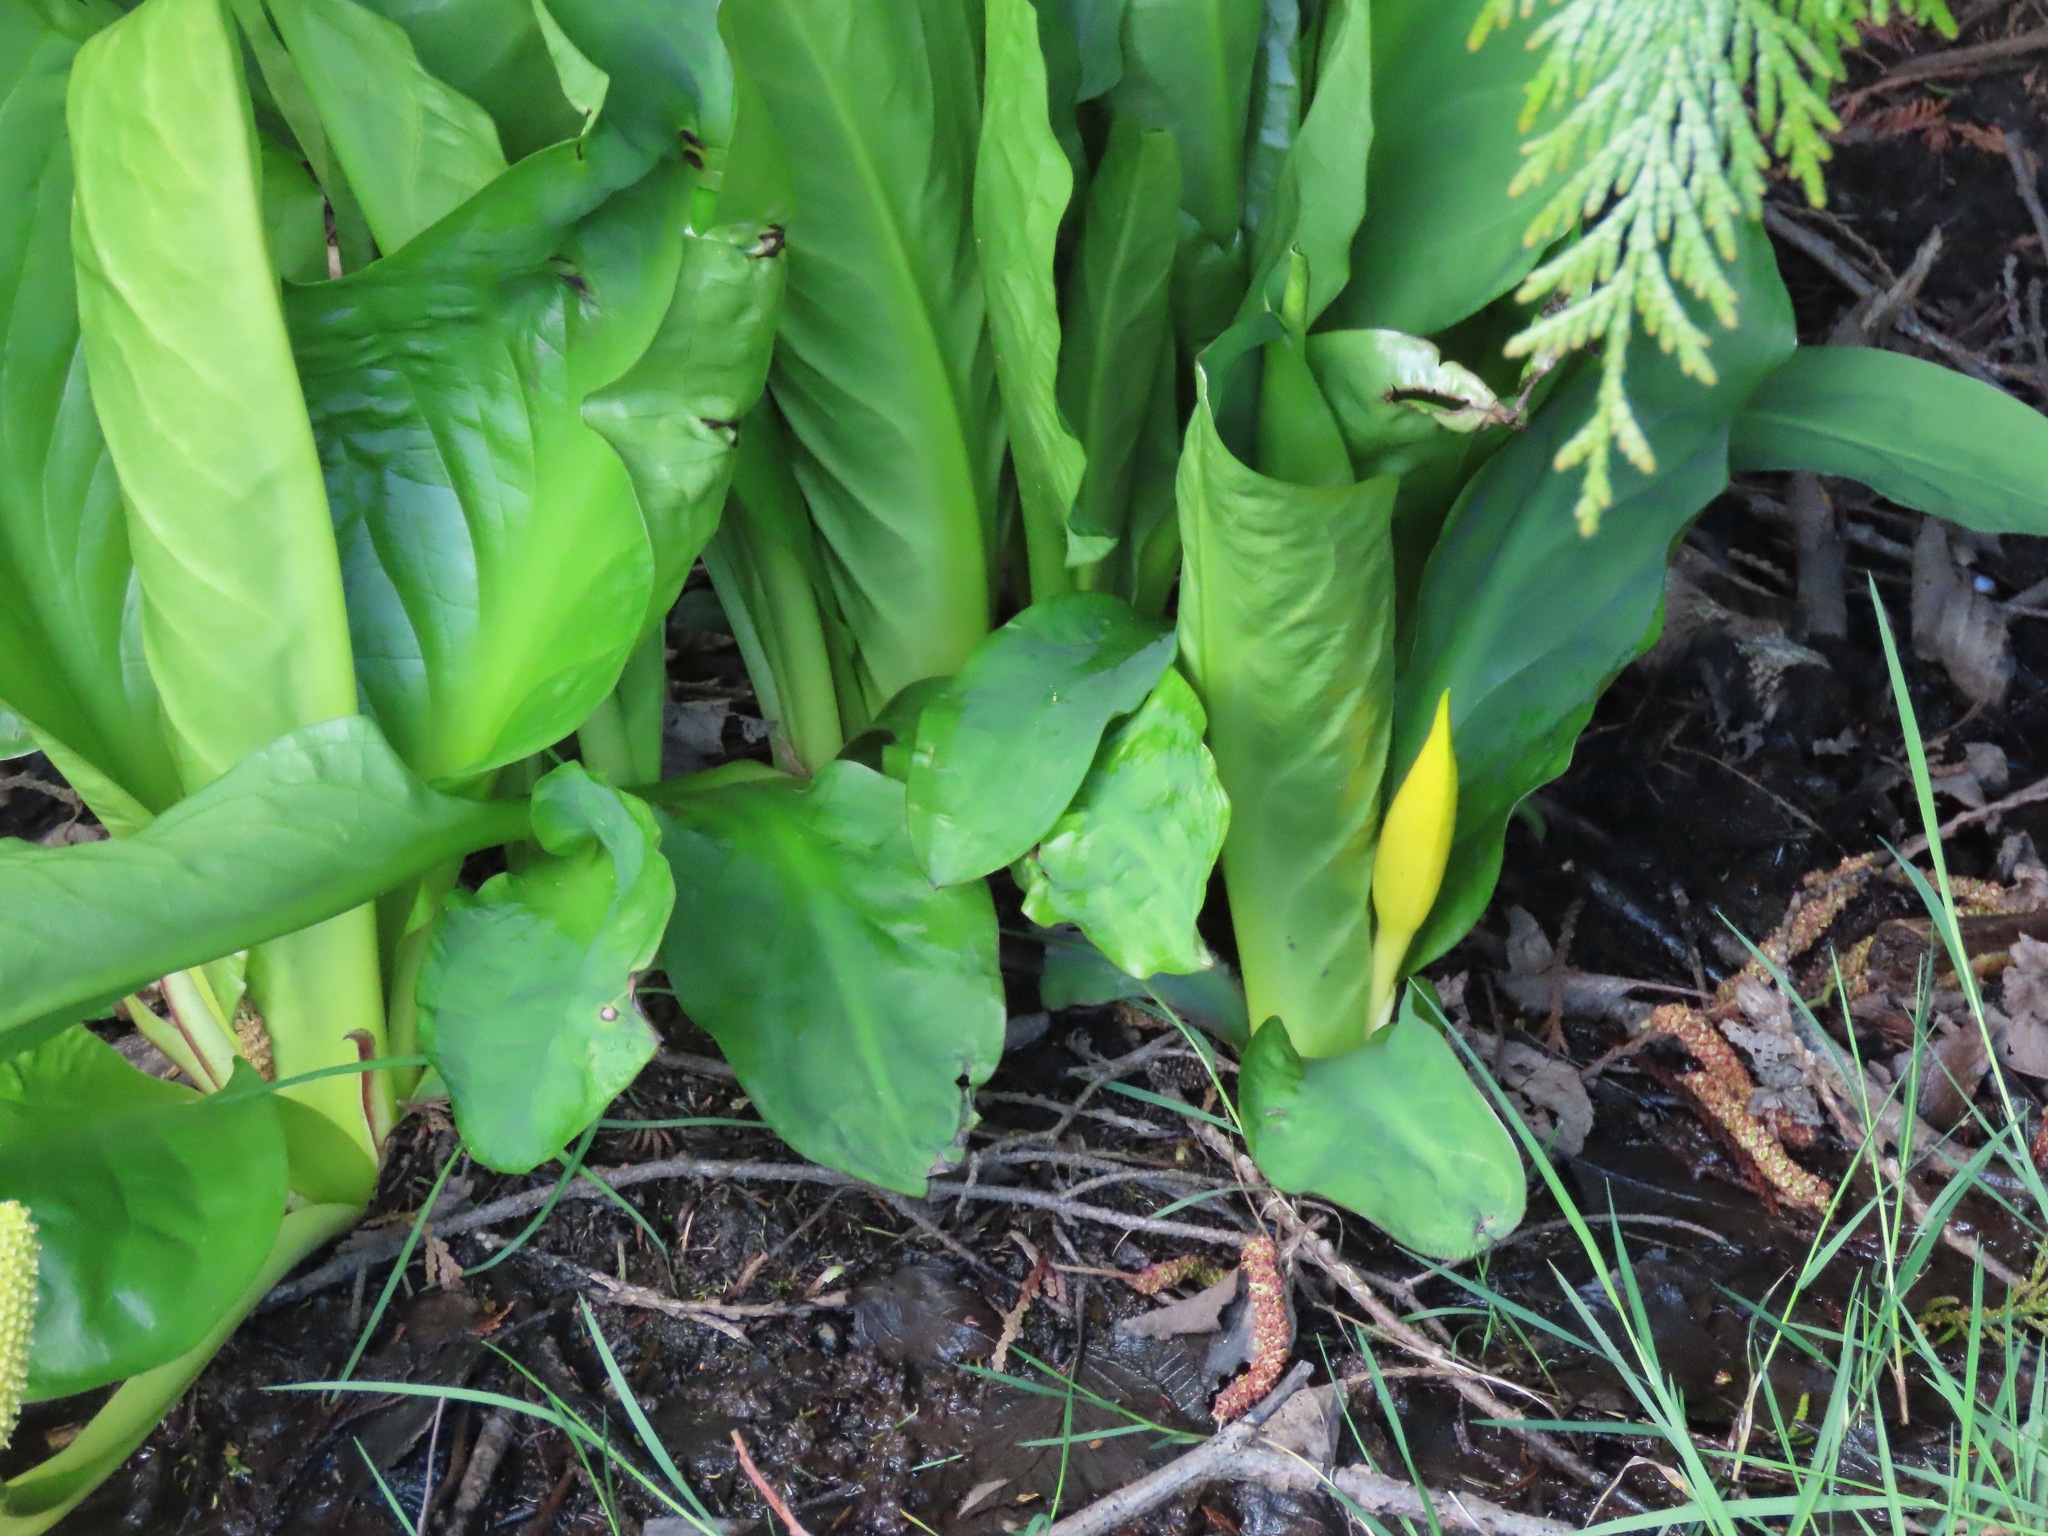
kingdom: Plantae
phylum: Tracheophyta
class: Liliopsida
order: Alismatales
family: Araceae
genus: Lysichiton
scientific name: Lysichiton americanus
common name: American skunk cabbage
